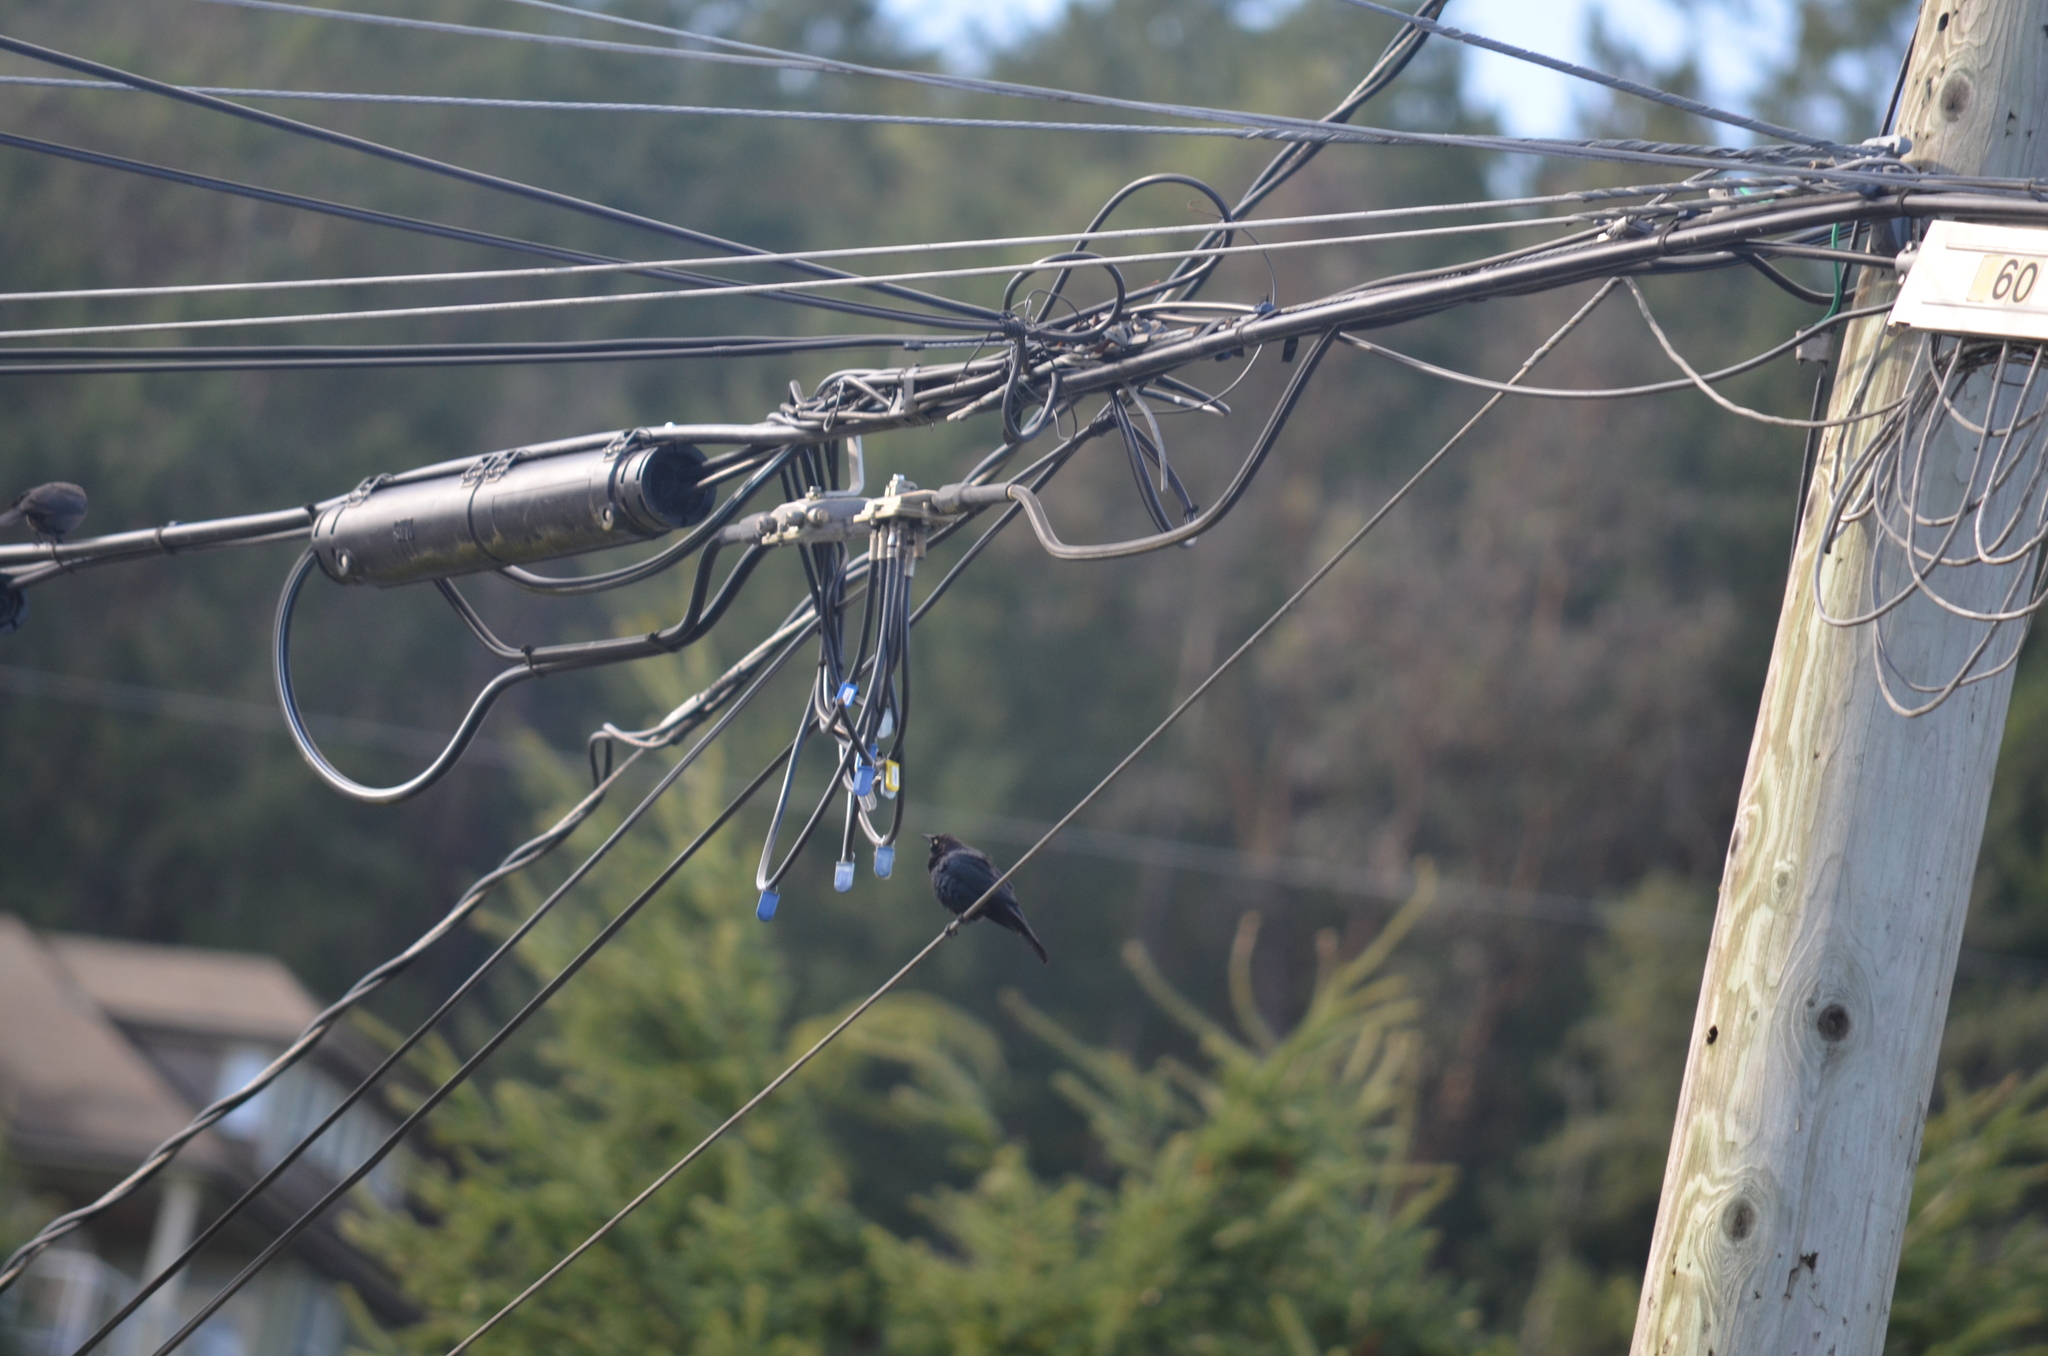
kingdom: Animalia
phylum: Chordata
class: Aves
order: Passeriformes
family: Icteridae
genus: Euphagus
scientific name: Euphagus cyanocephalus
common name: Brewer's blackbird
